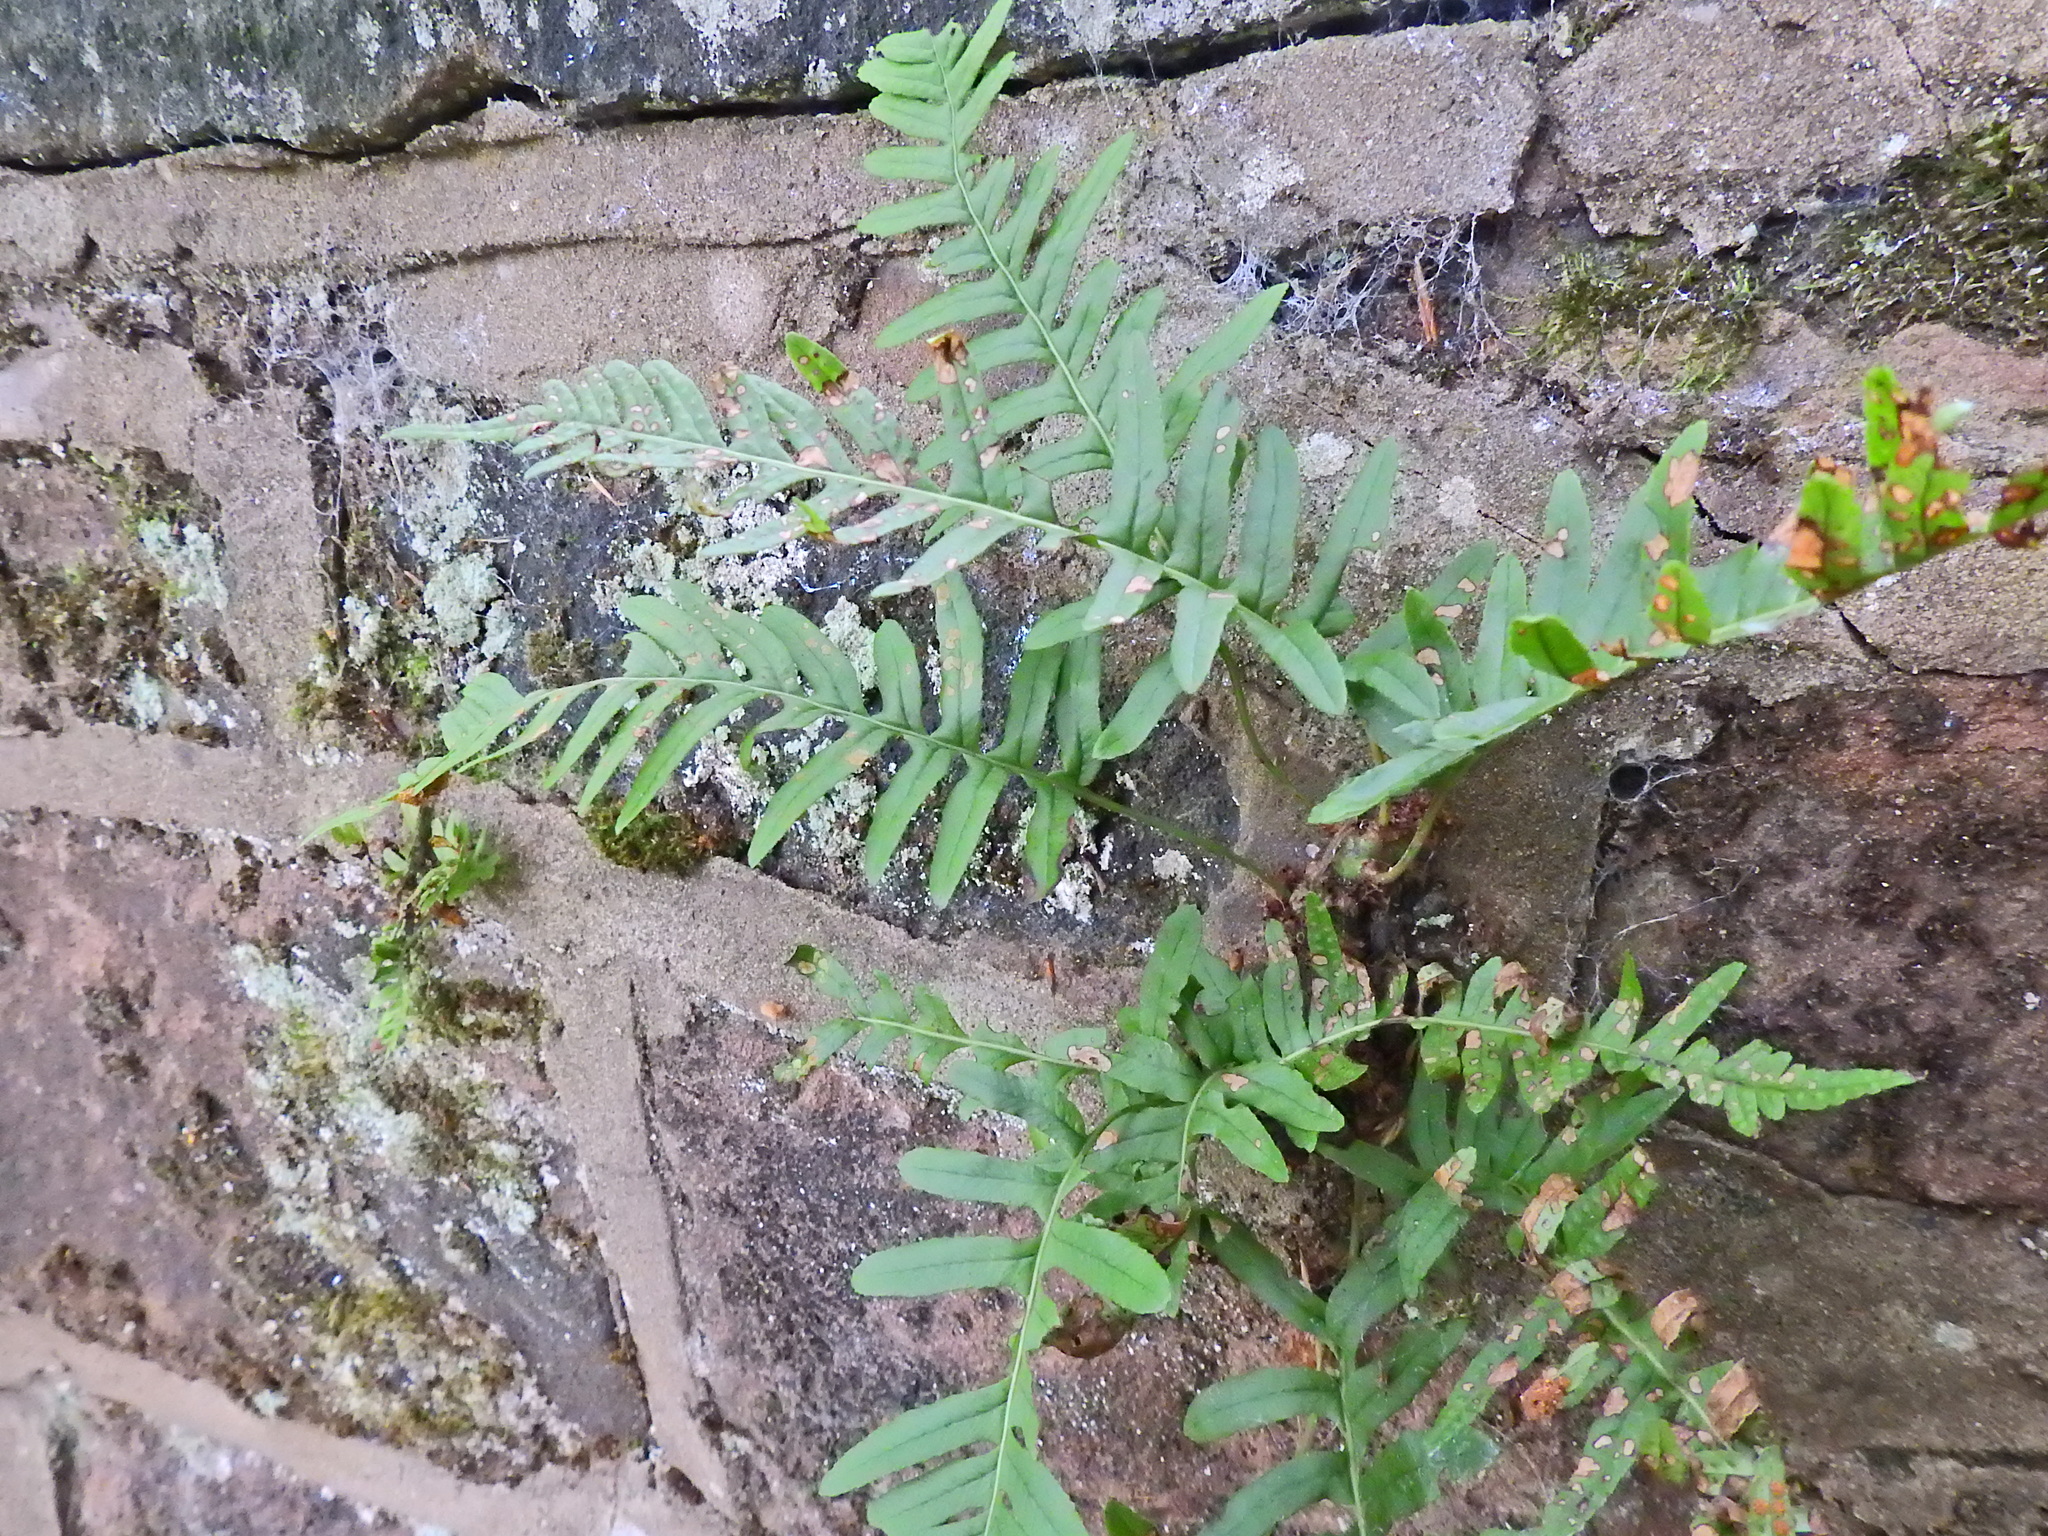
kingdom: Plantae
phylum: Tracheophyta
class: Polypodiopsida
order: Polypodiales
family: Polypodiaceae
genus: Polypodium
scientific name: Polypodium vulgare
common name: Common polypody
